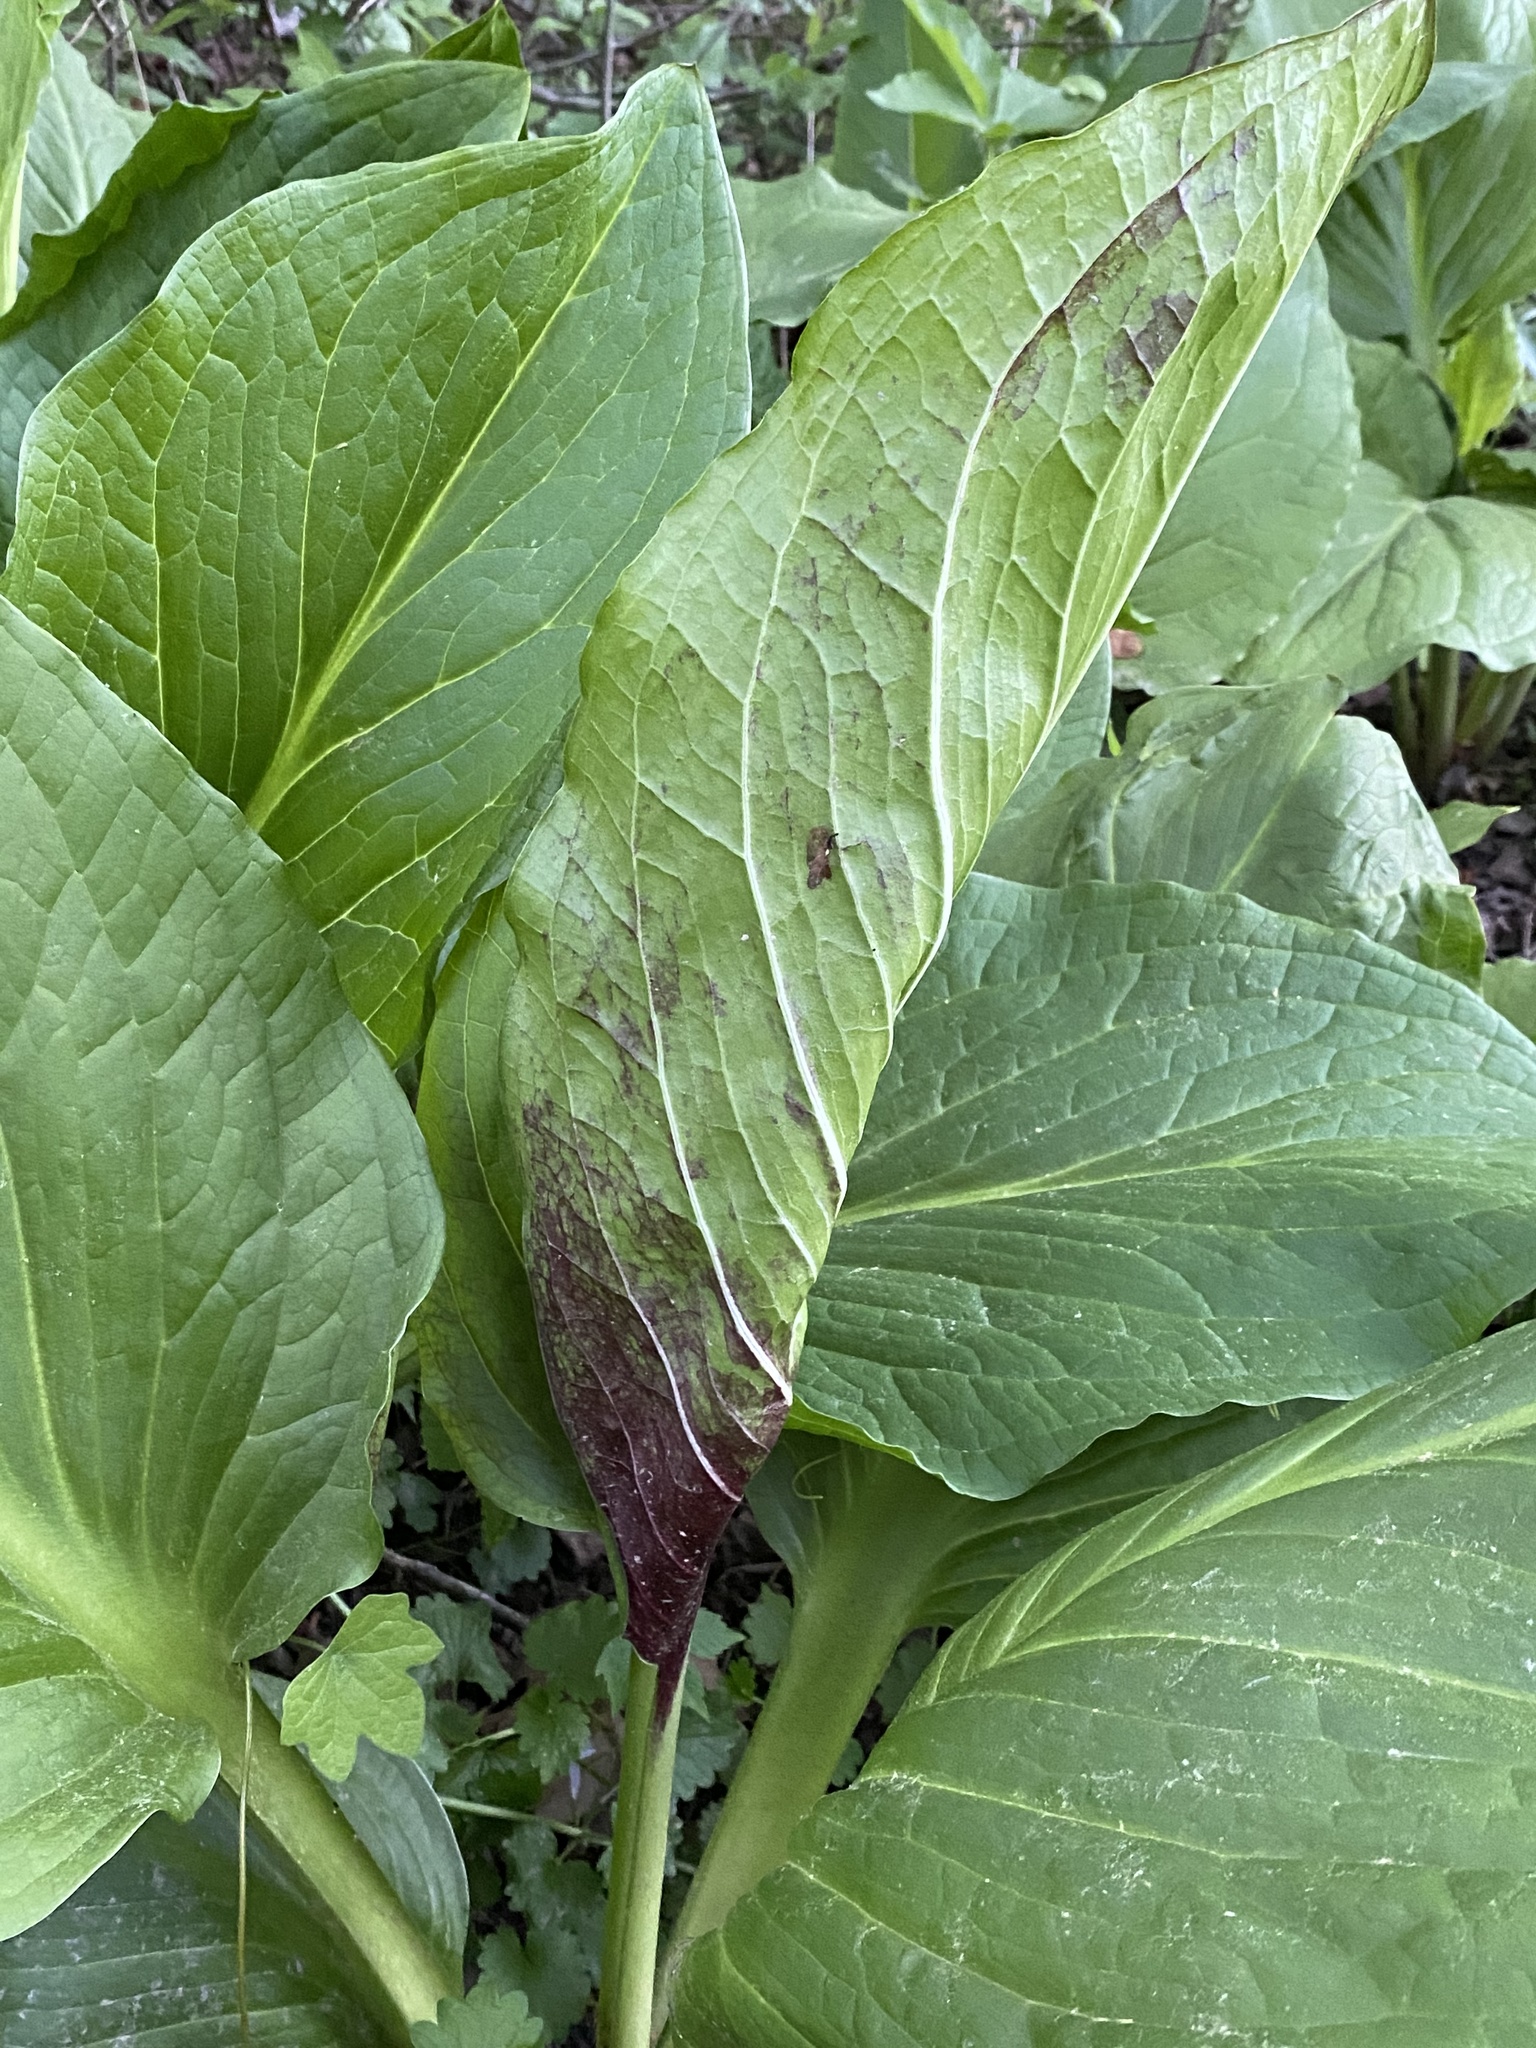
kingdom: Plantae
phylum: Tracheophyta
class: Liliopsida
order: Alismatales
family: Araceae
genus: Symplocarpus
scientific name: Symplocarpus foetidus
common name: Eastern skunk cabbage
